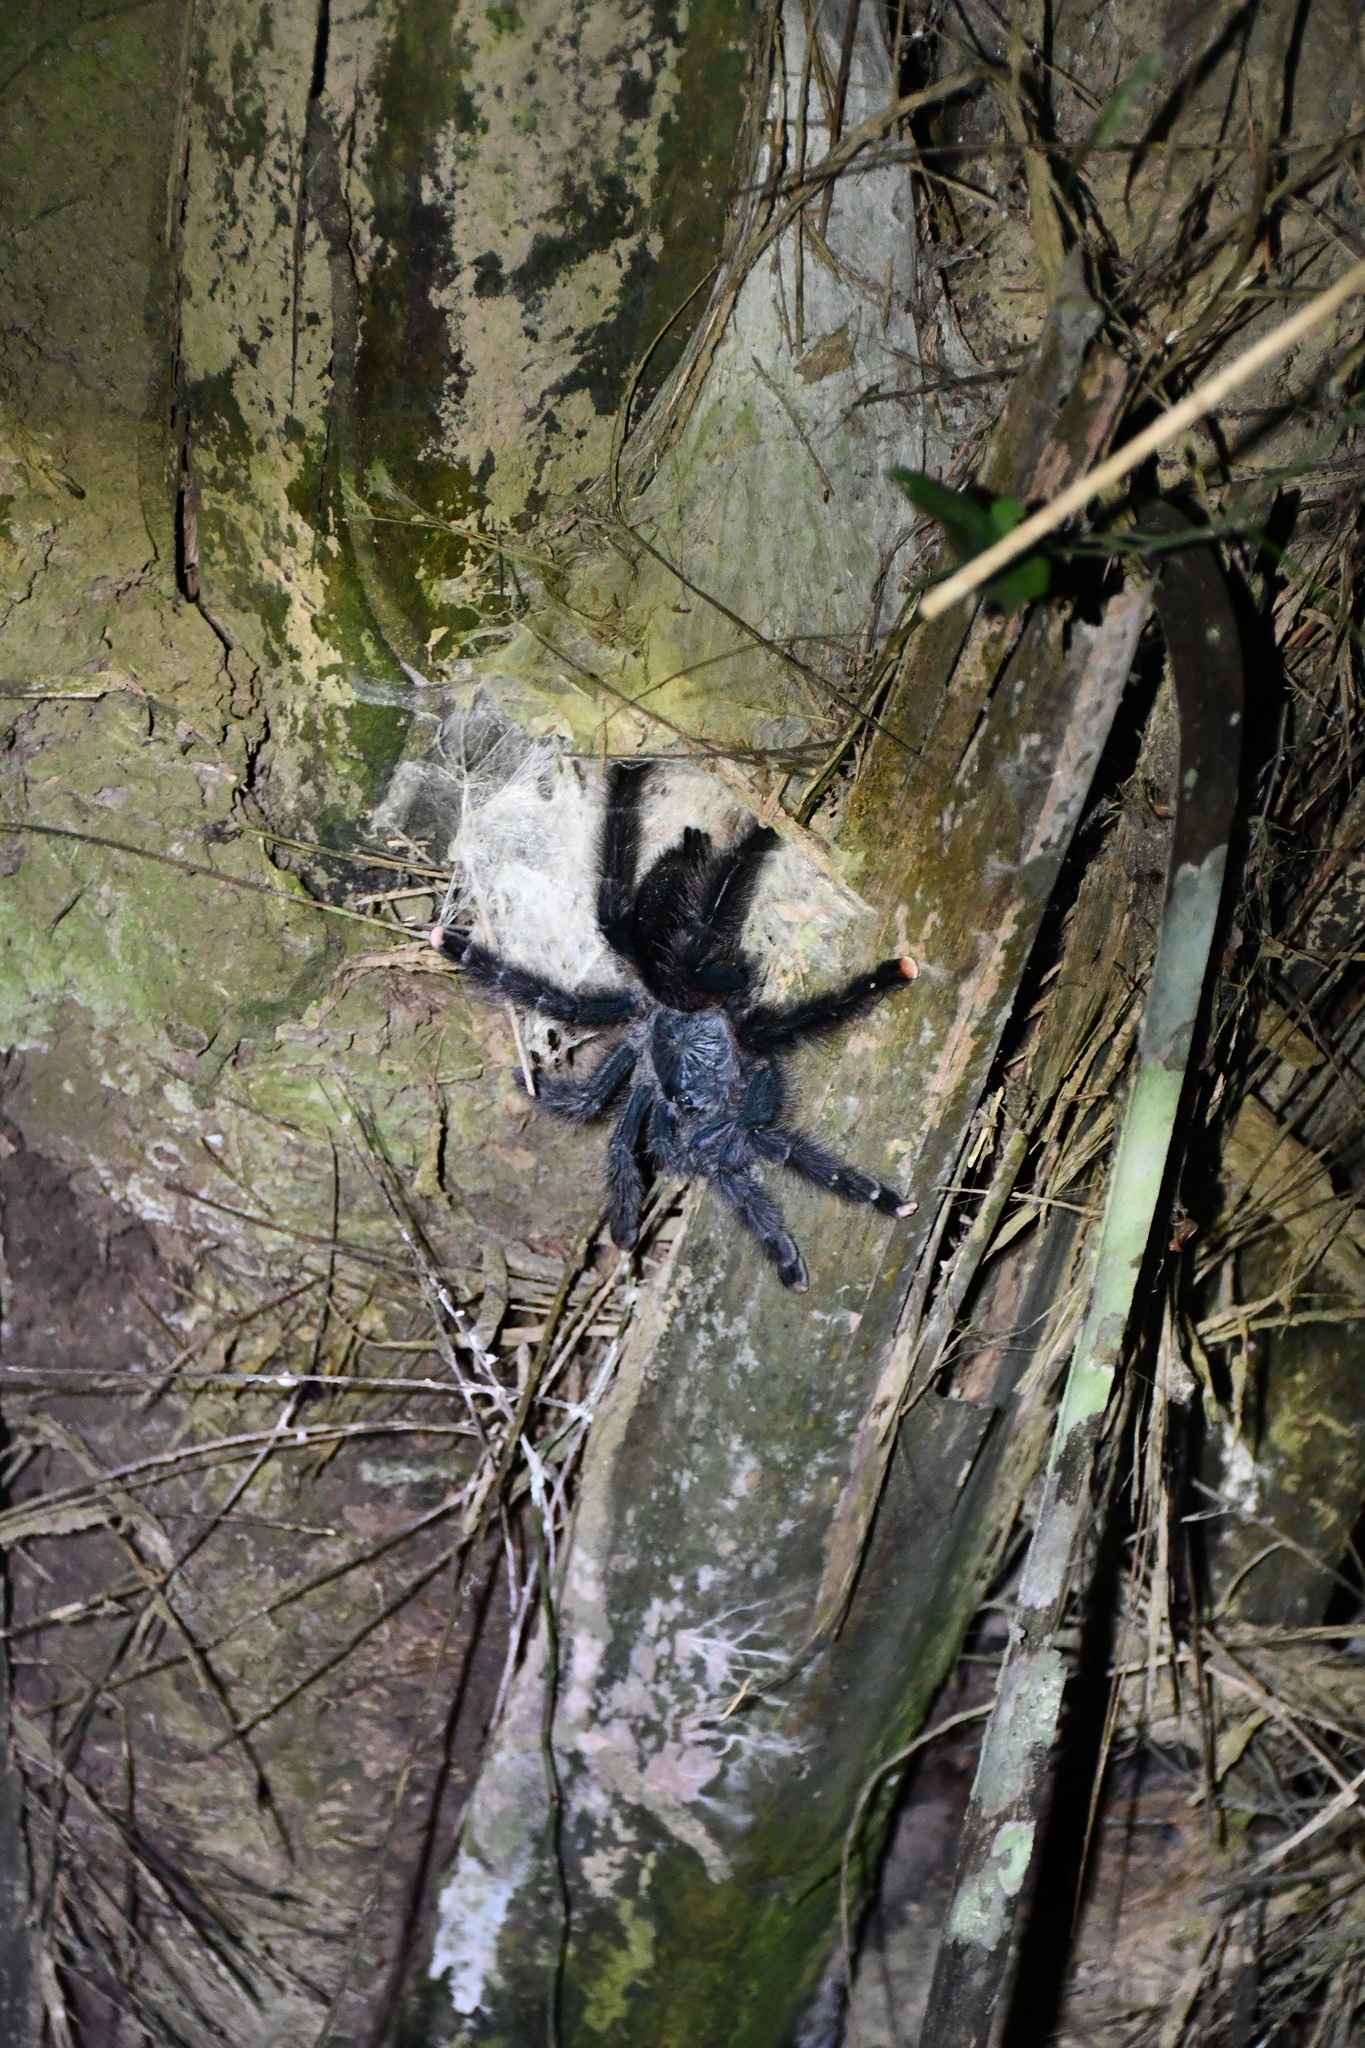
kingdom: Animalia
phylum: Arthropoda
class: Arachnida
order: Araneae
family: Theraphosidae
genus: Avicularia
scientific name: Avicularia avicularia
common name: Tarantula spiders
